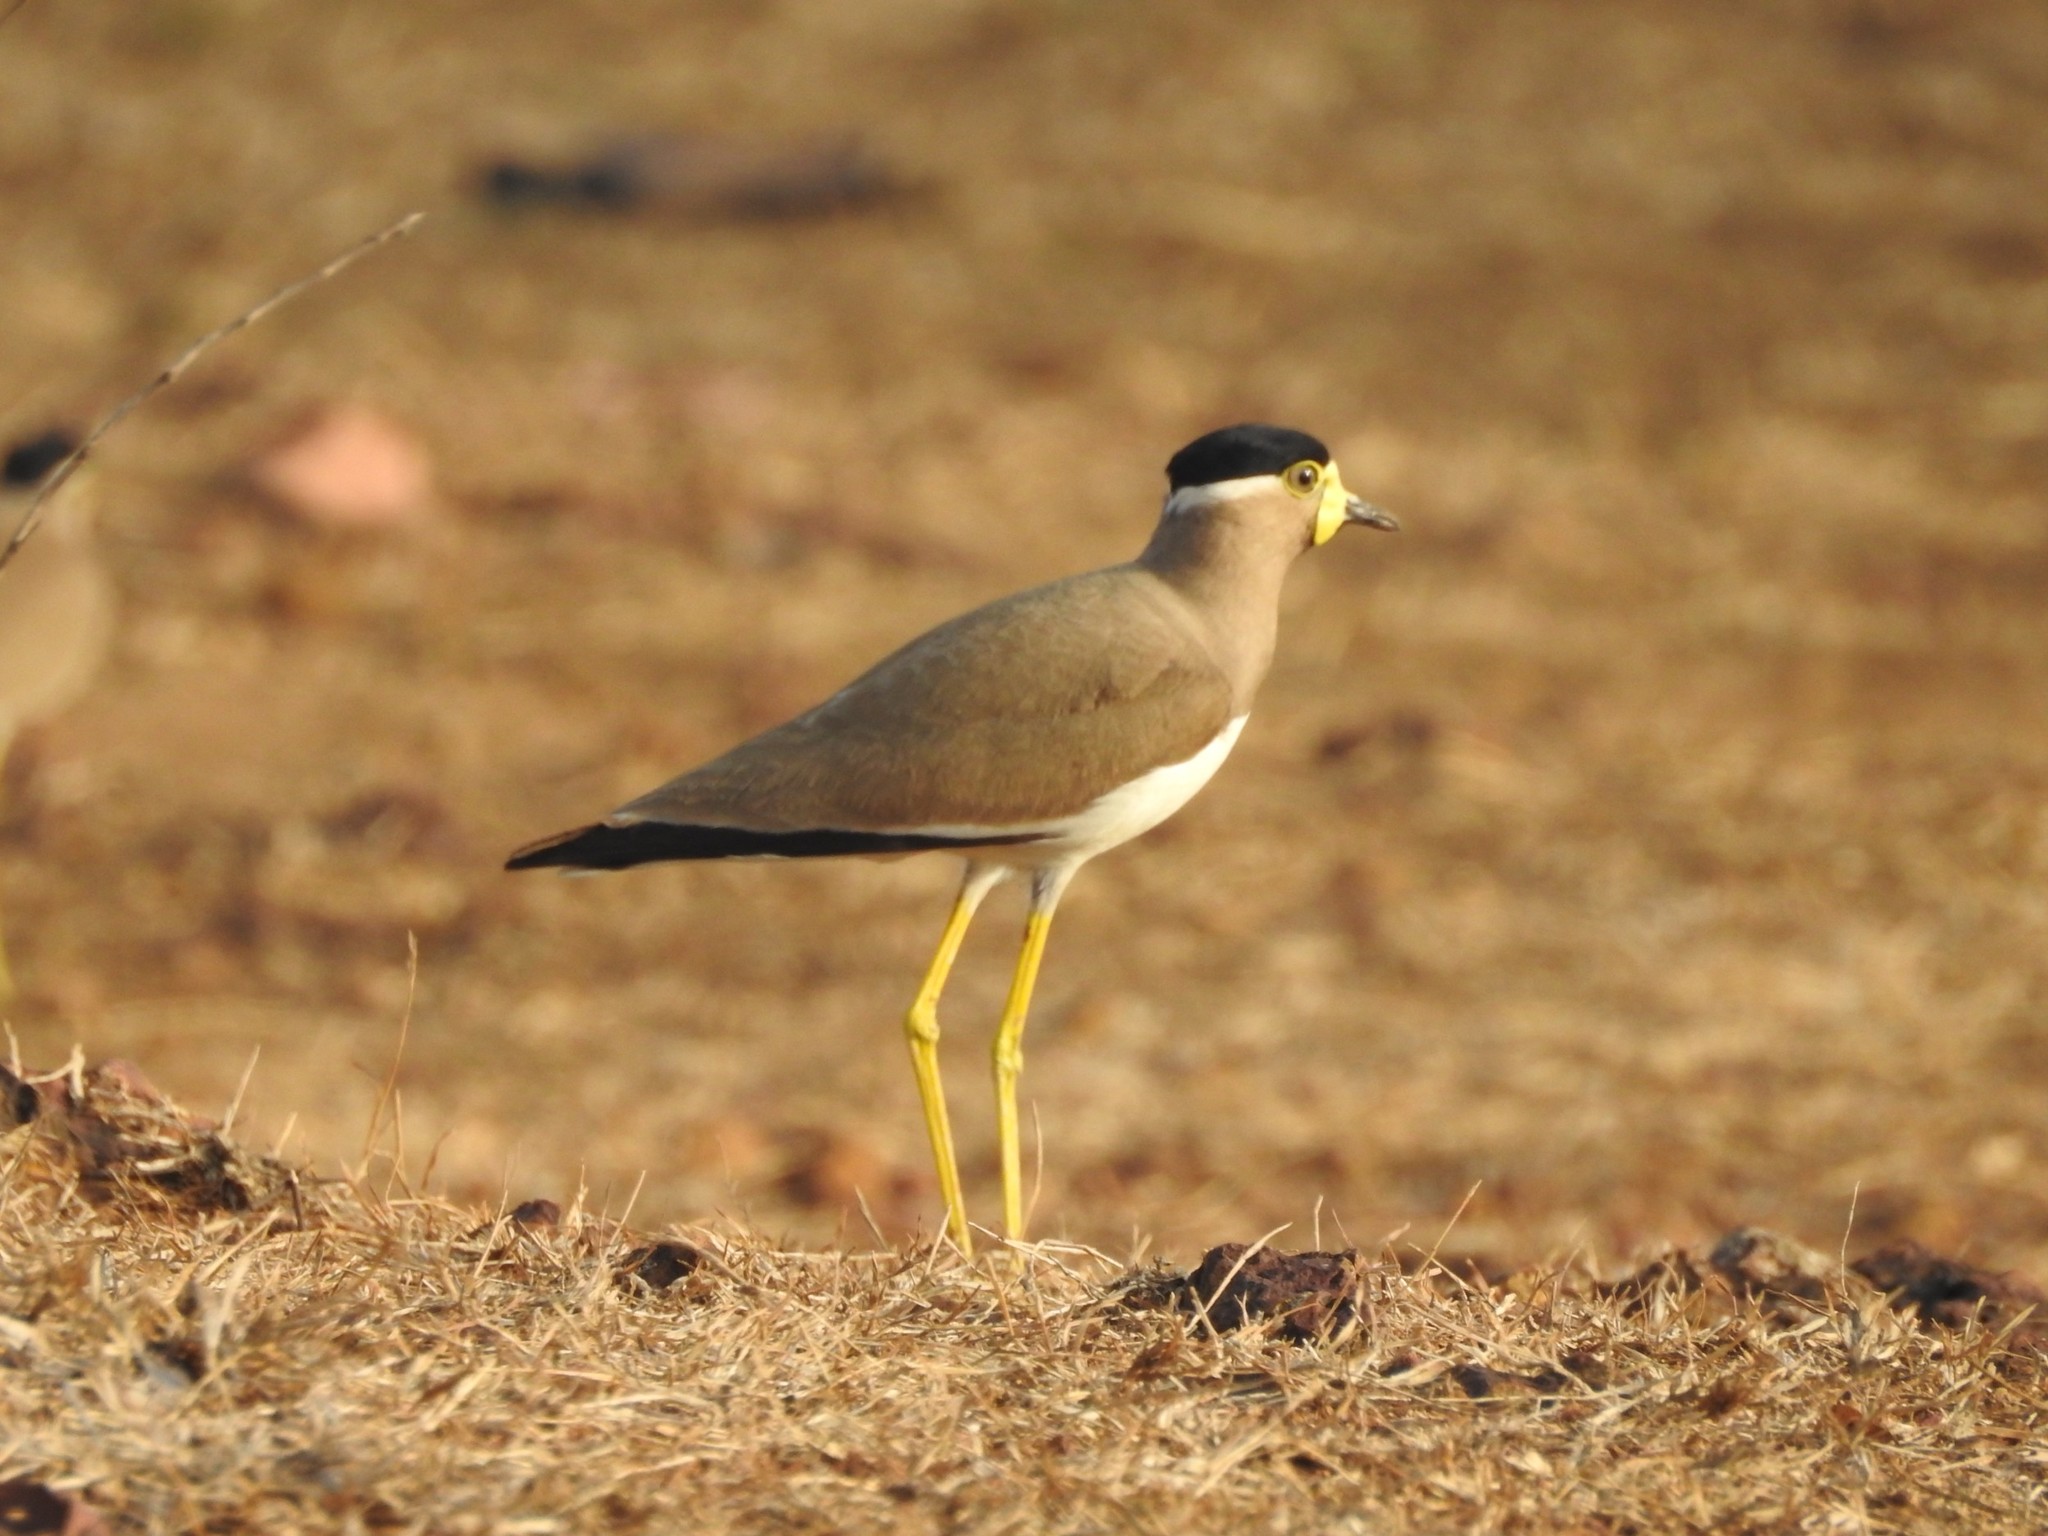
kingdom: Animalia
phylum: Chordata
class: Aves
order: Charadriiformes
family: Charadriidae
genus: Vanellus
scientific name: Vanellus malabaricus
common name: Yellow-wattled lapwing
